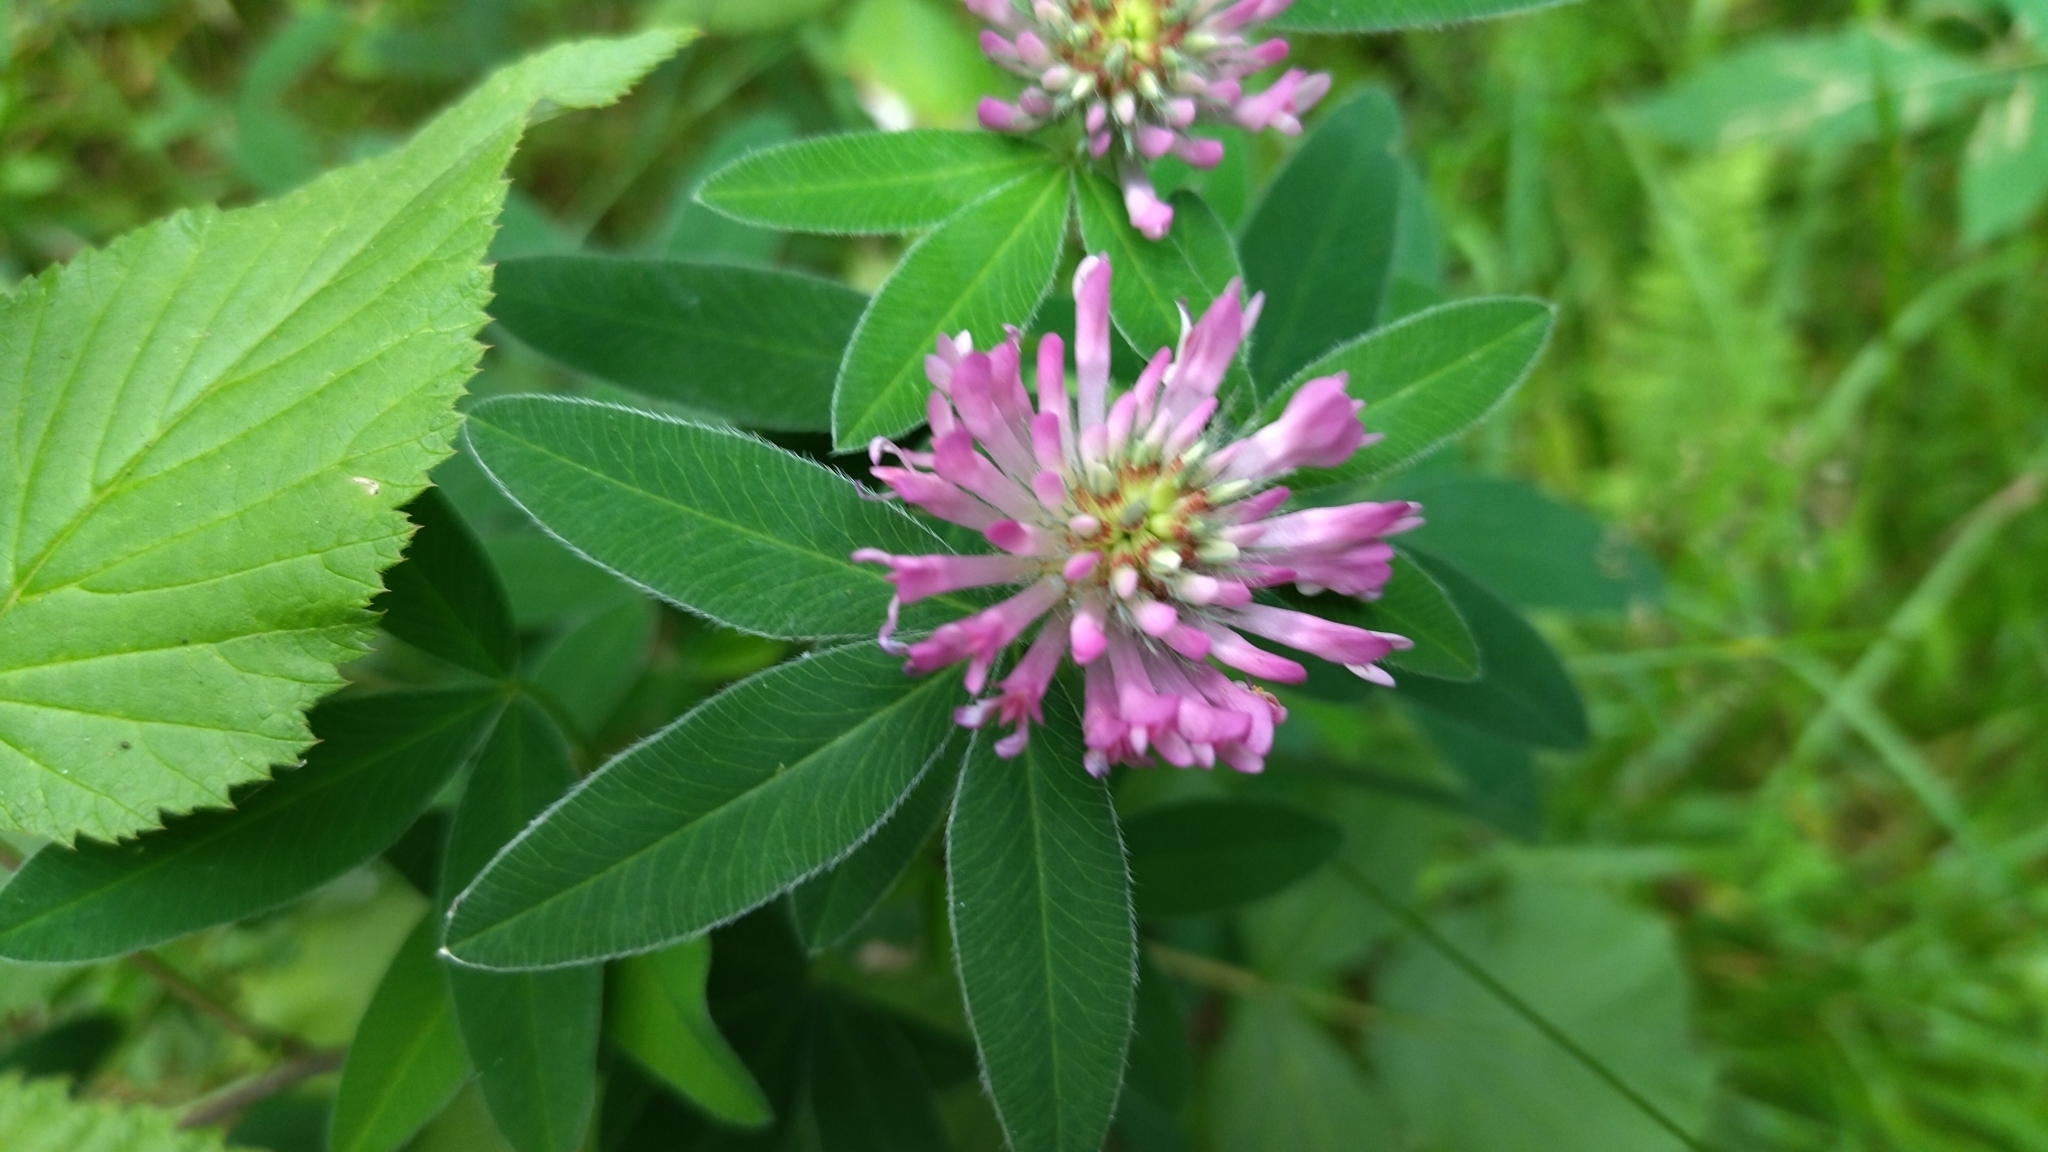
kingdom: Plantae
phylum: Tracheophyta
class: Magnoliopsida
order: Fabales
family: Fabaceae
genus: Trifolium
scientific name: Trifolium medium
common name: Zigzag clover
